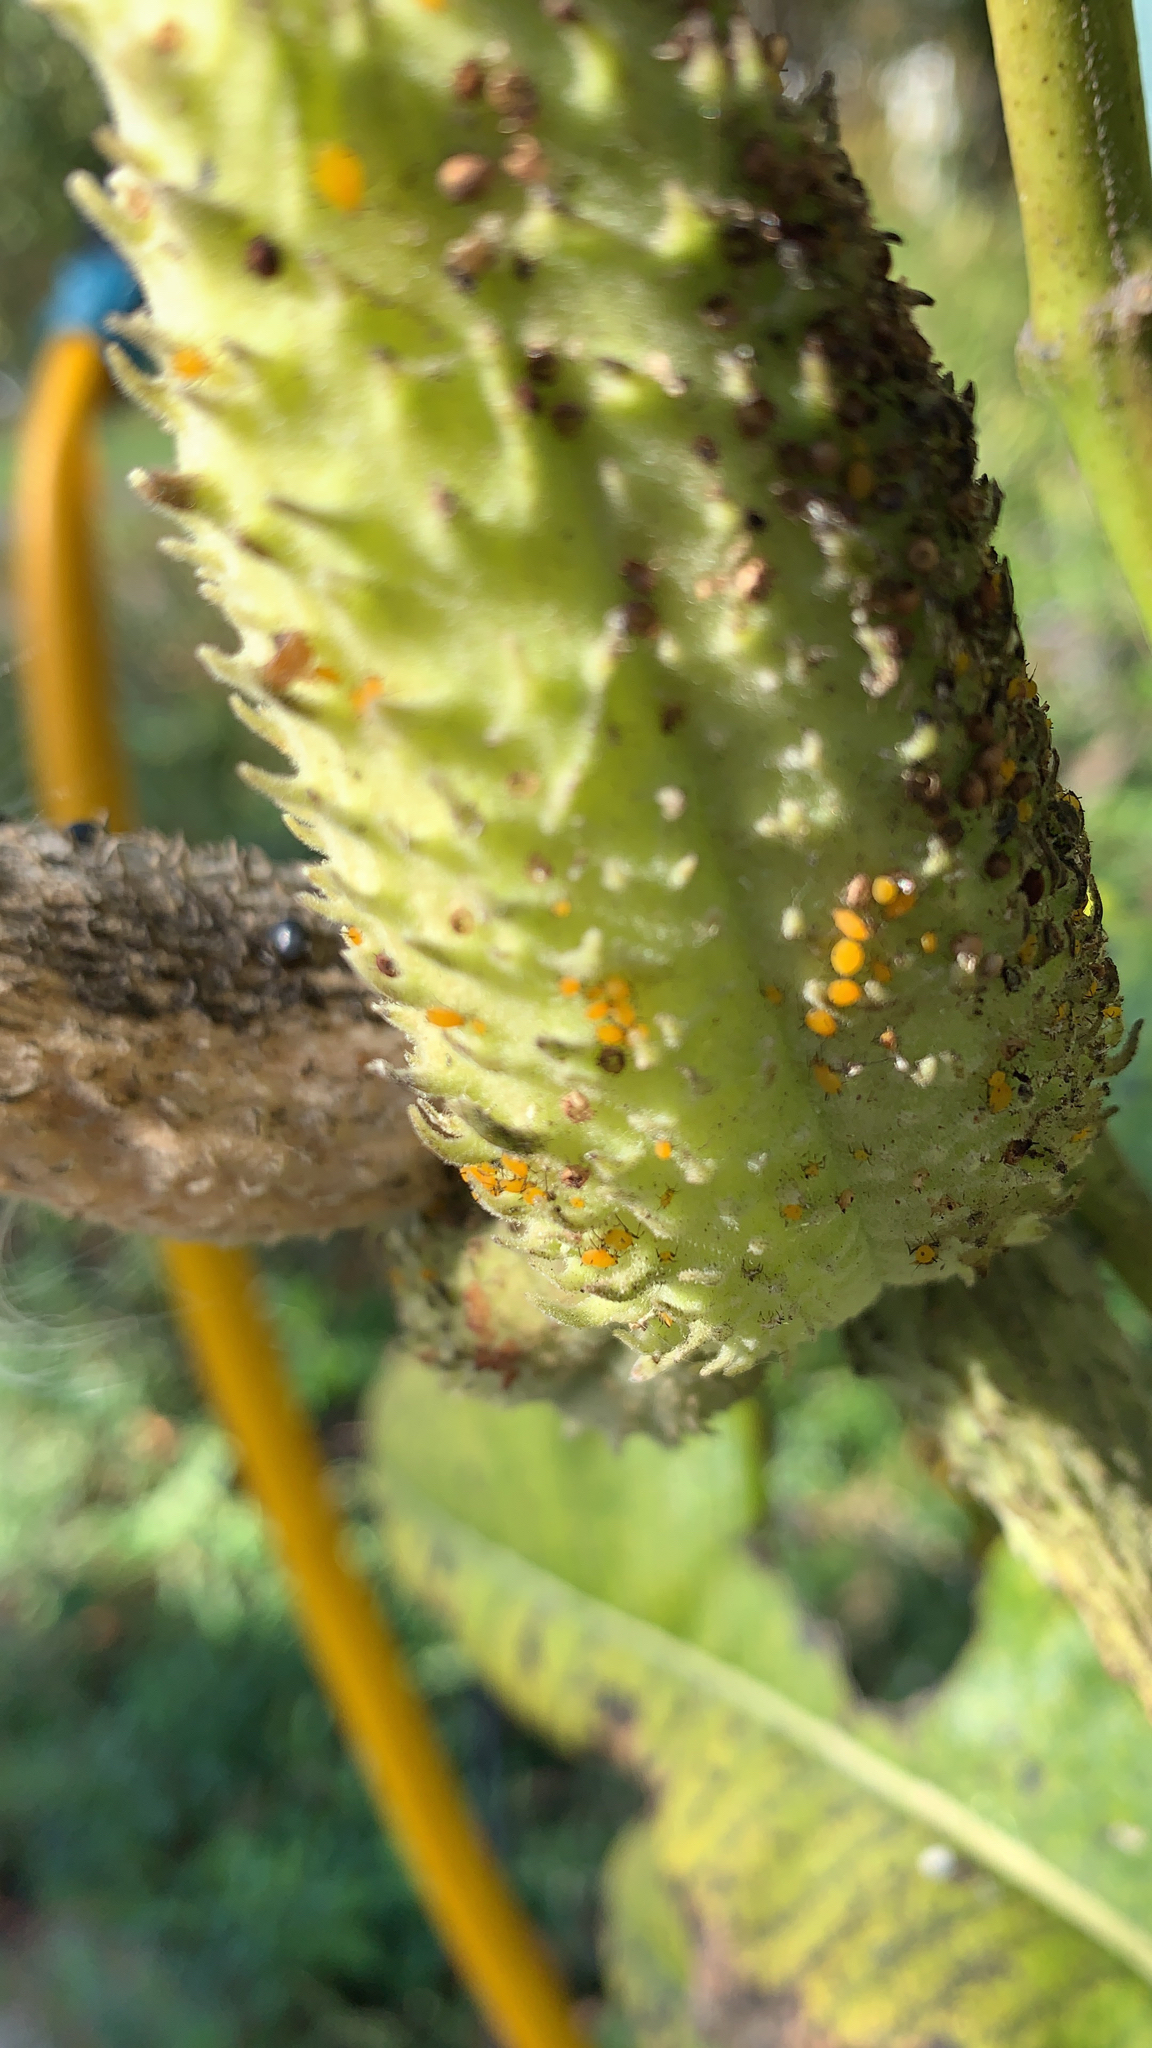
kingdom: Animalia
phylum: Arthropoda
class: Insecta
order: Hemiptera
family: Aphididae
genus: Aphis
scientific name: Aphis nerii
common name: Oleander aphid
